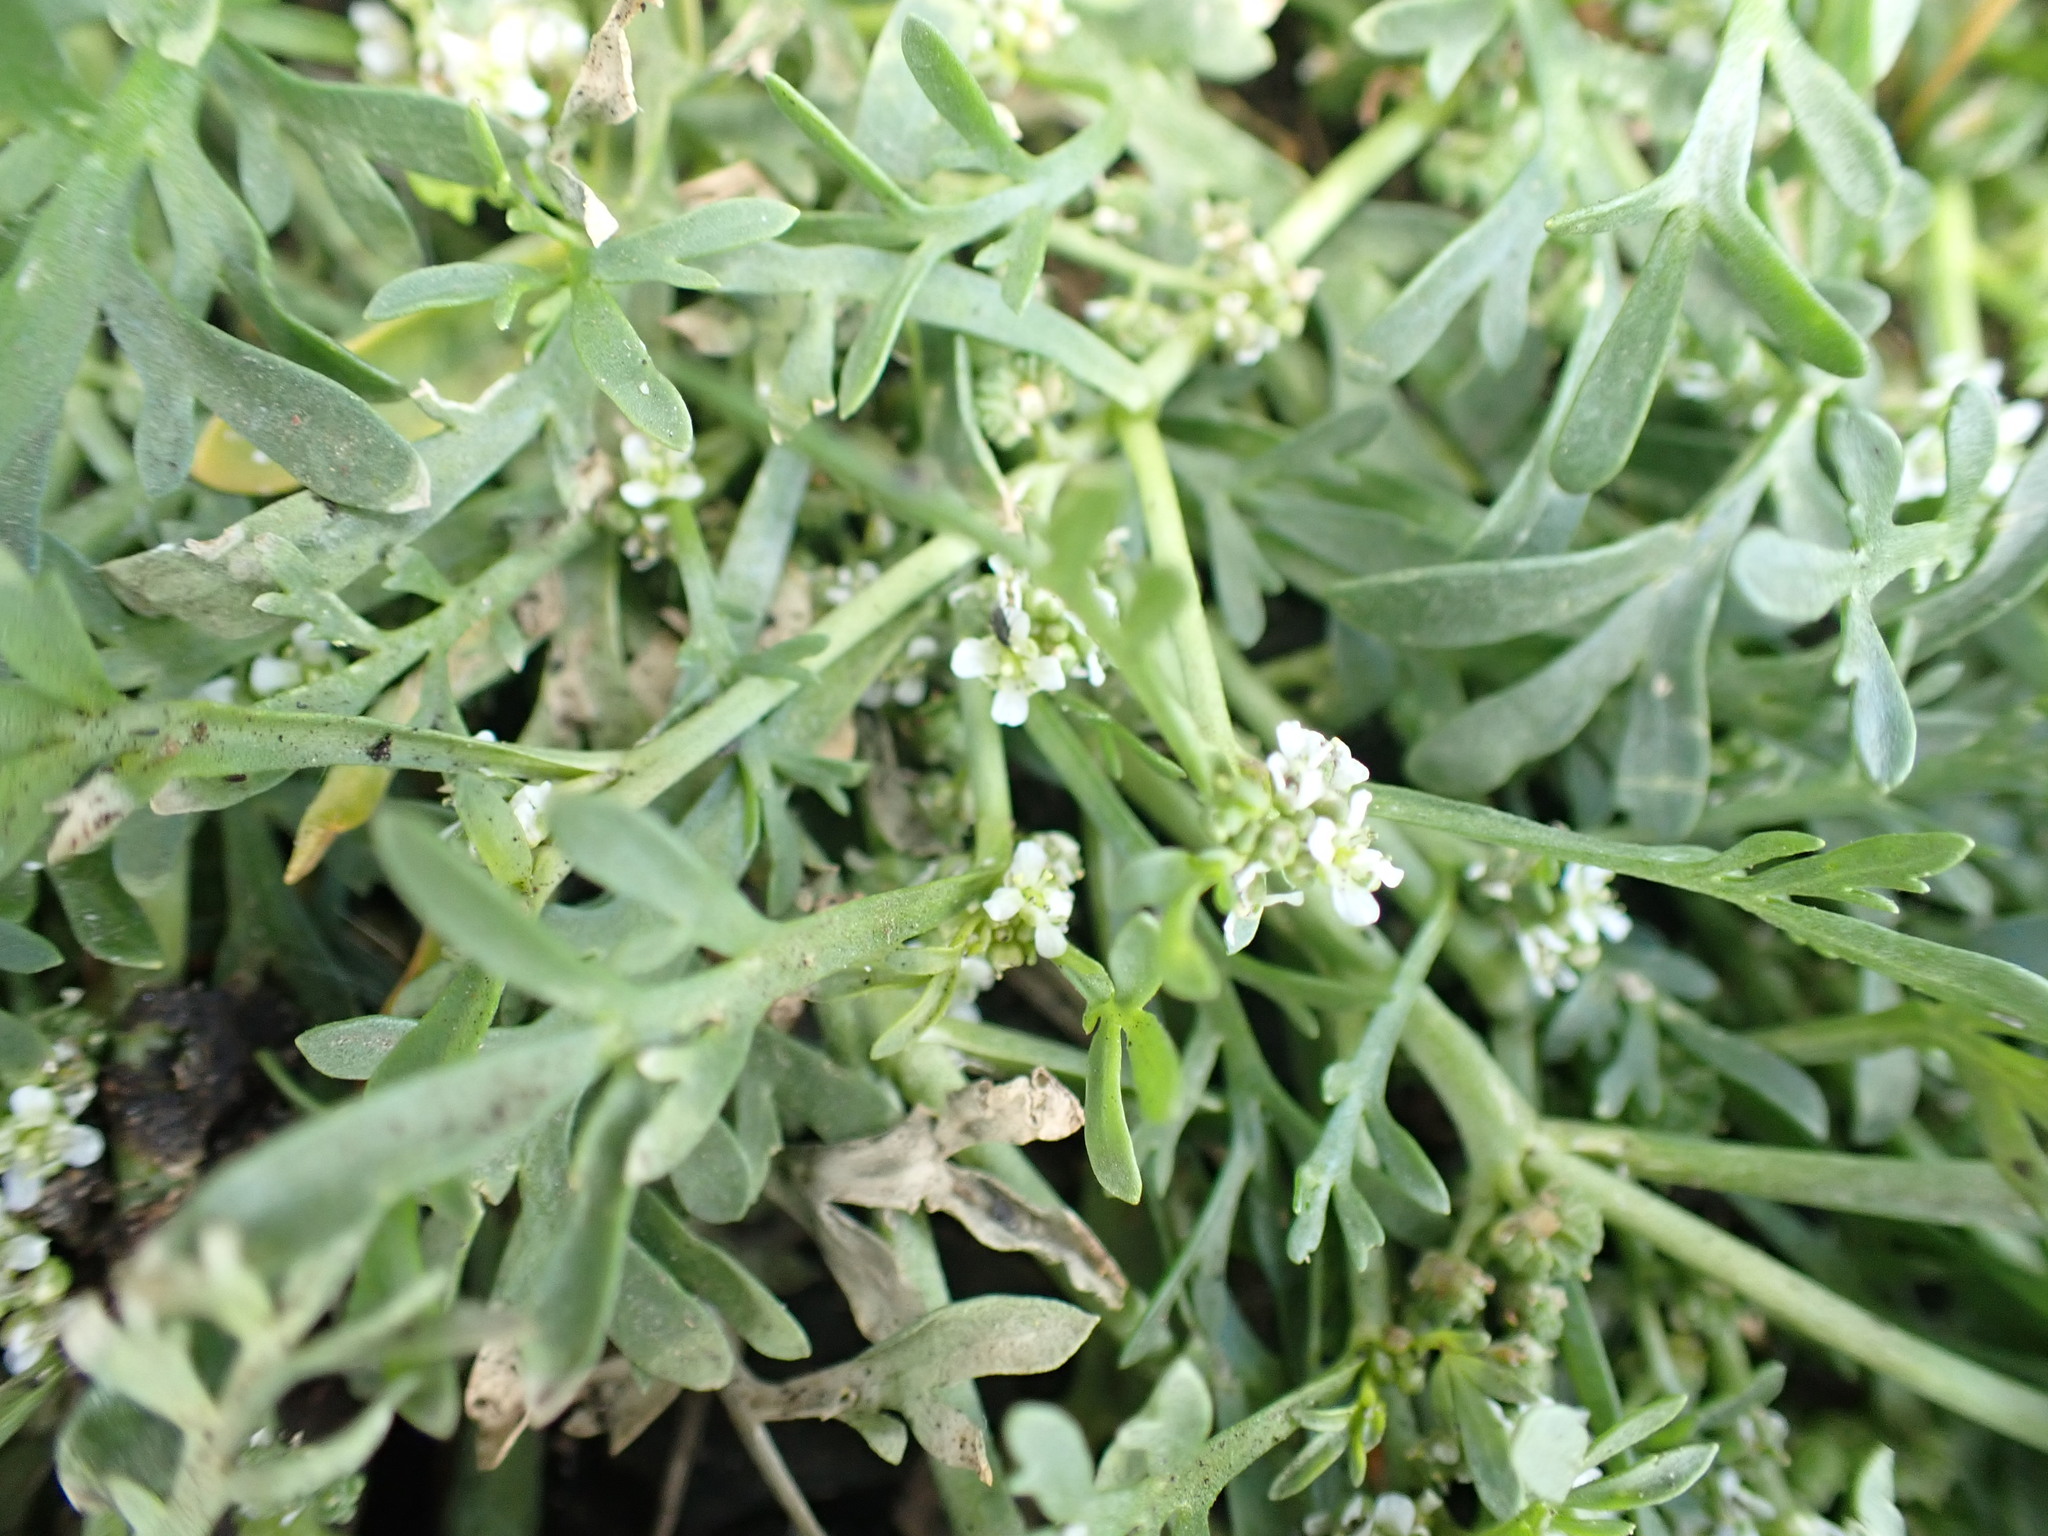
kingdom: Plantae
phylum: Tracheophyta
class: Magnoliopsida
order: Brassicales
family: Brassicaceae
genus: Lepidium
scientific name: Lepidium coronopus
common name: Greater swinecress
